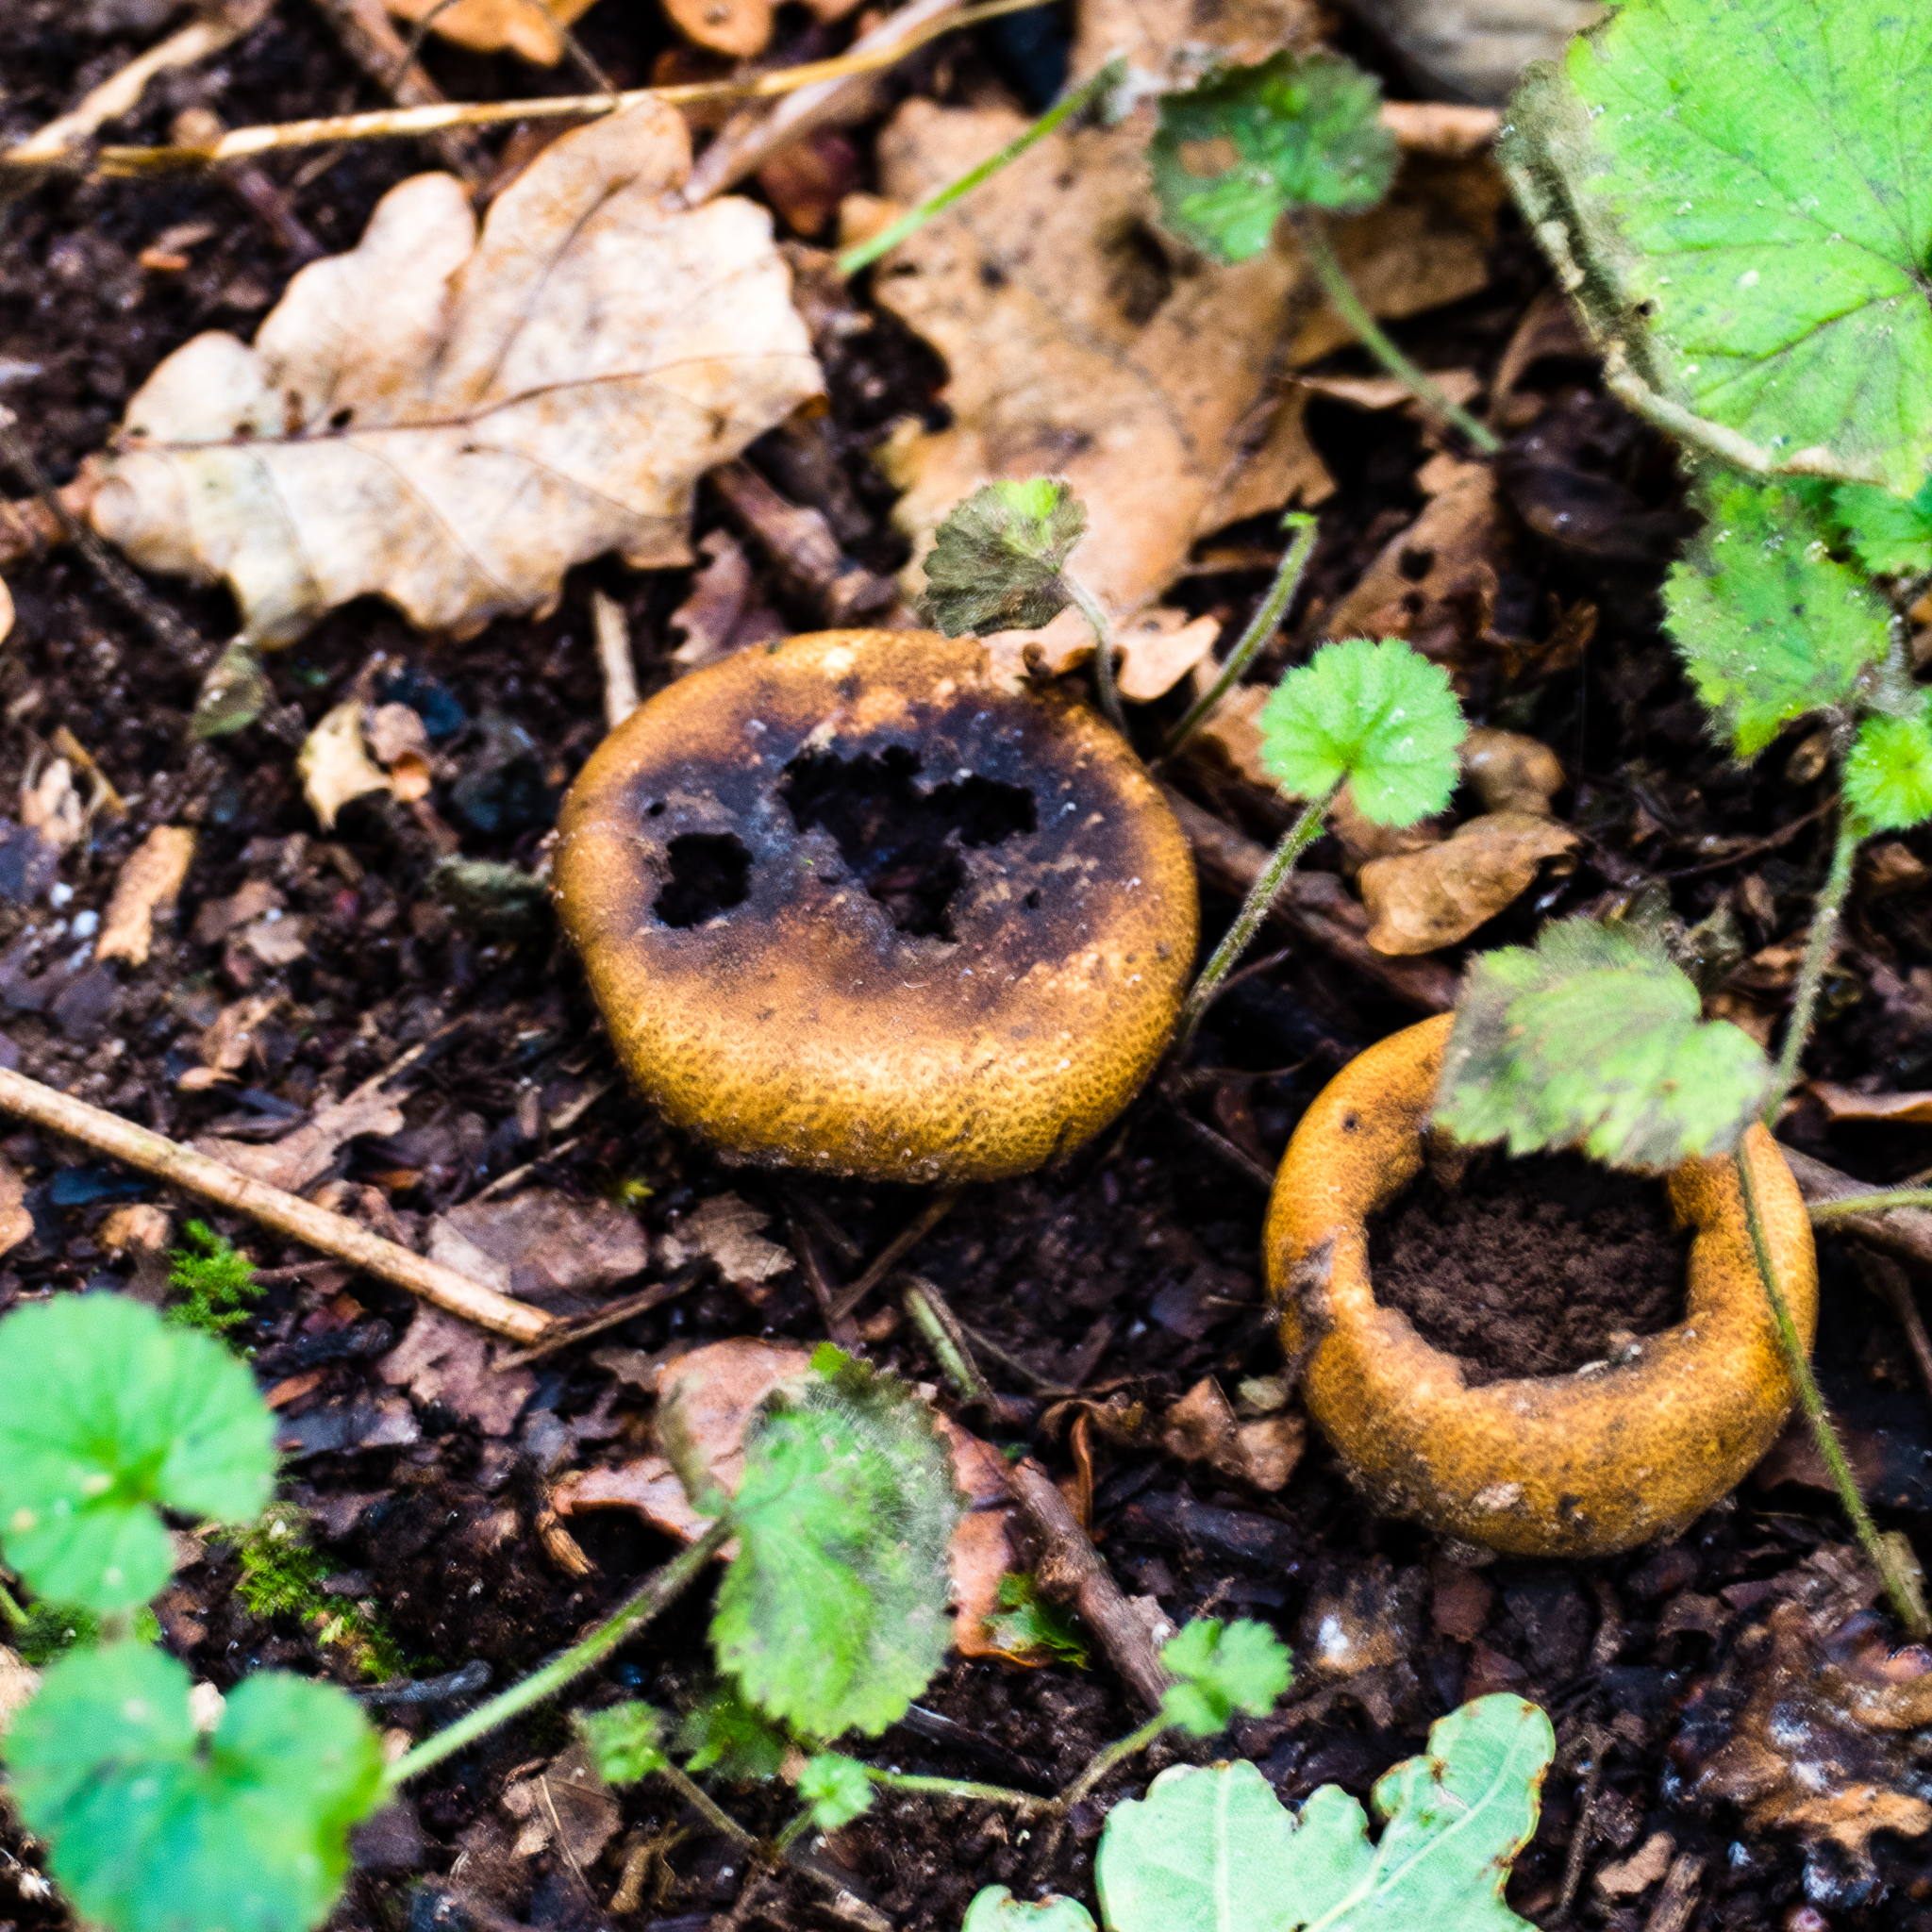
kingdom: Fungi
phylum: Basidiomycota
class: Agaricomycetes
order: Boletales
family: Sclerodermataceae
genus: Scleroderma
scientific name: Scleroderma citrinum
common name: Common earthball
